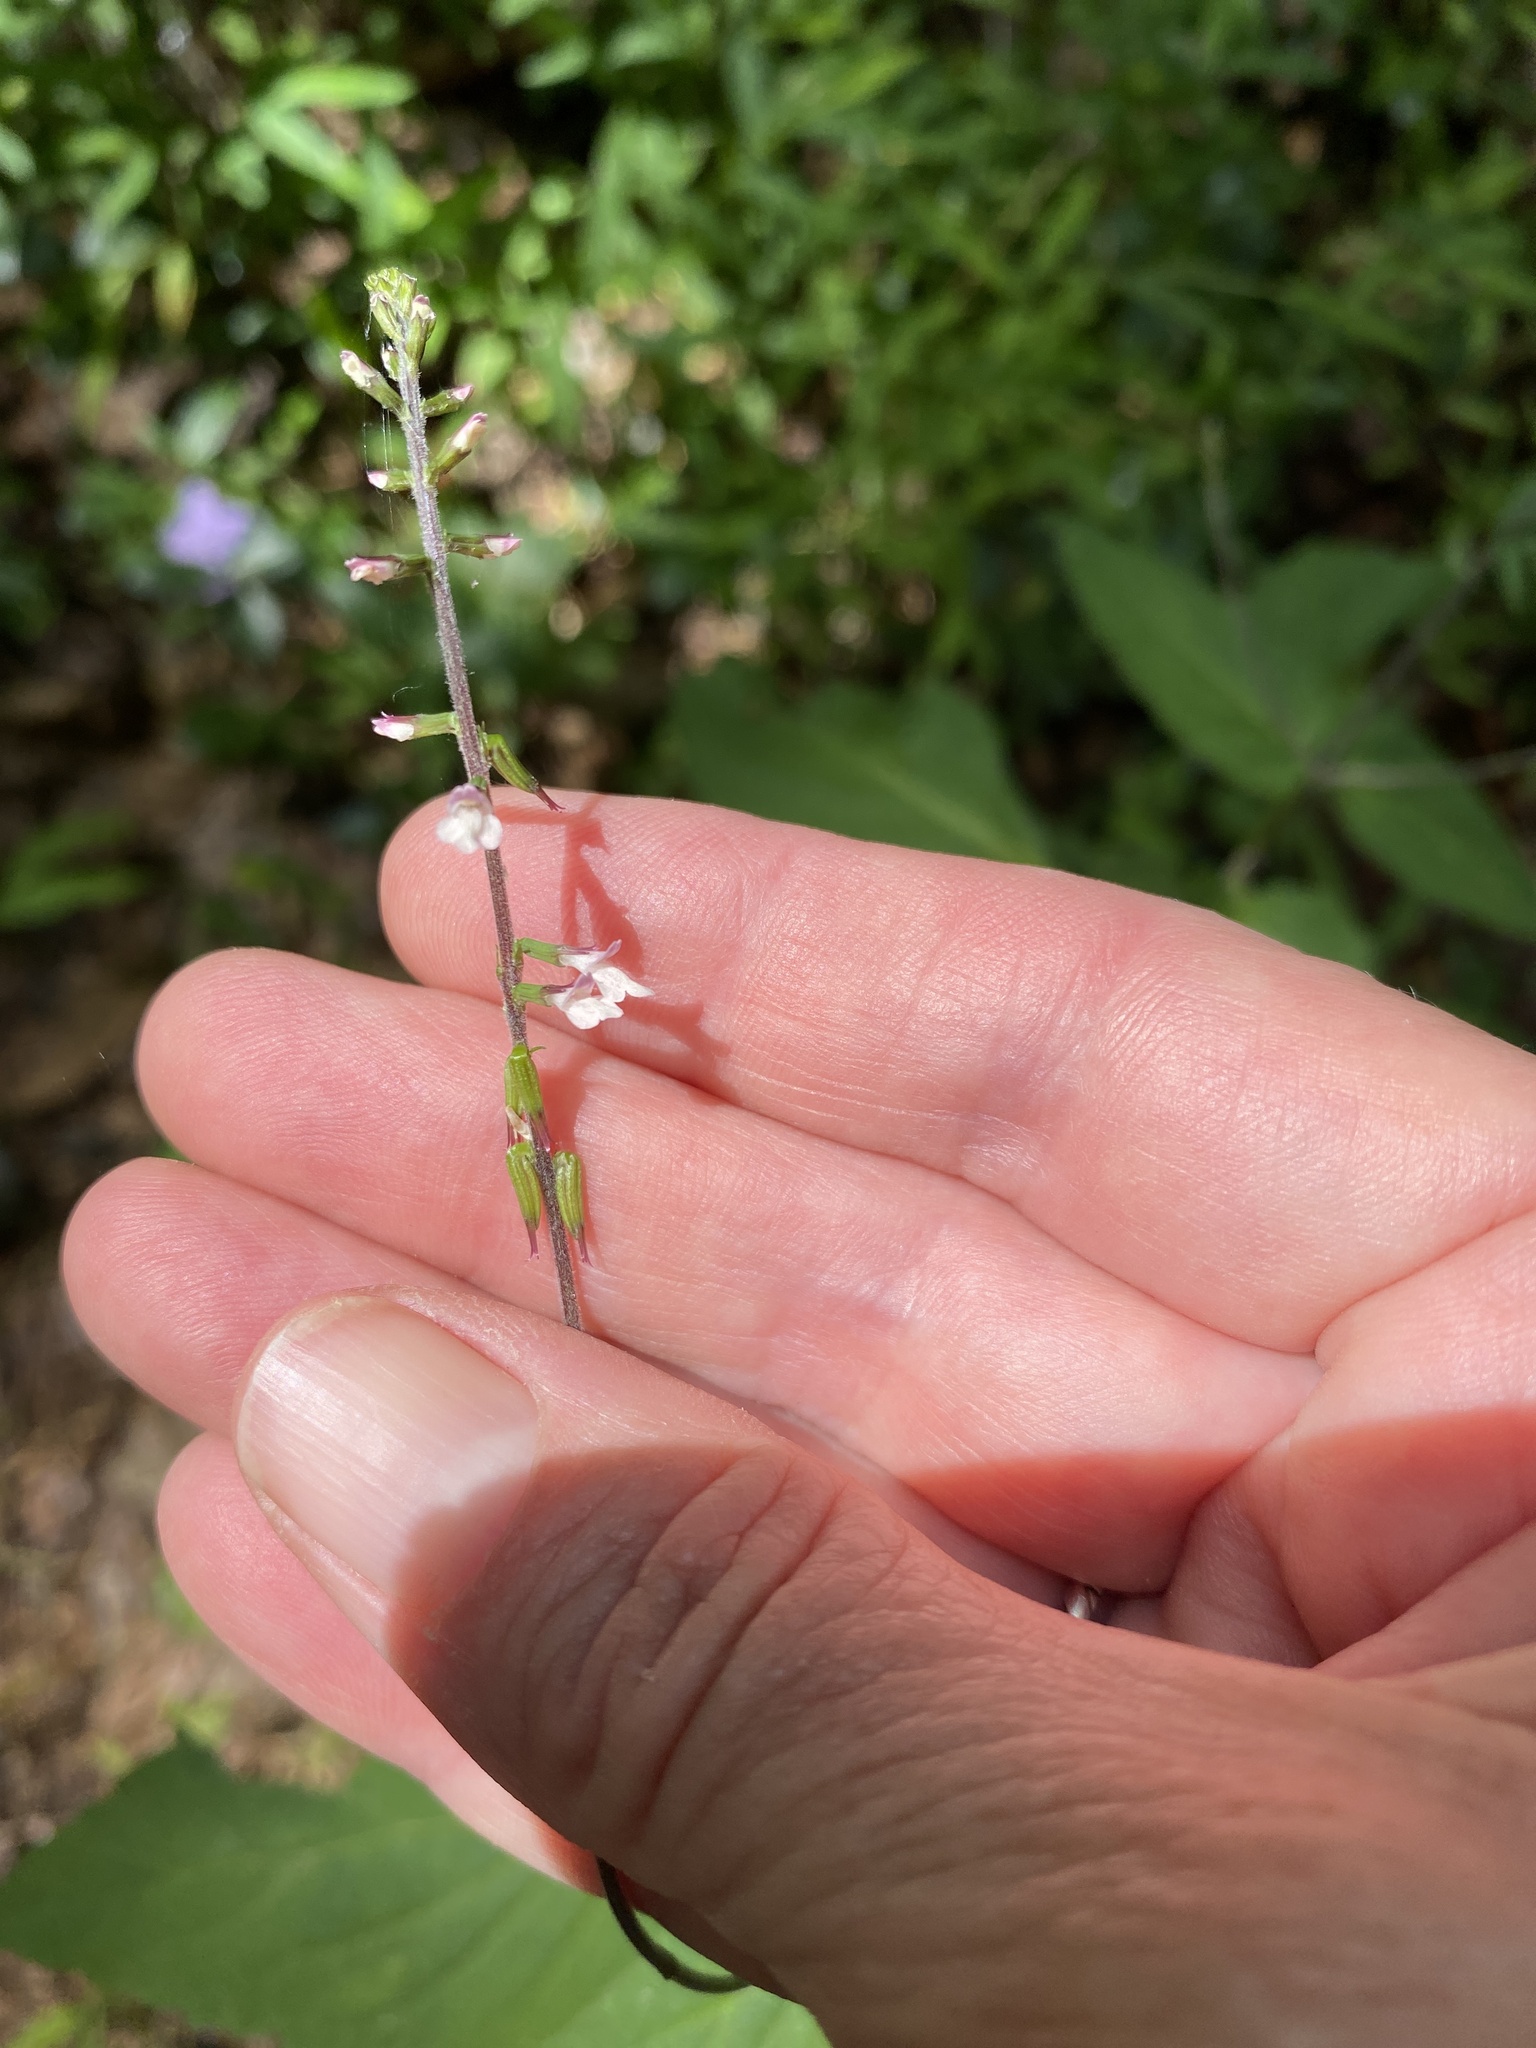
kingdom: Plantae
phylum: Tracheophyta
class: Magnoliopsida
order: Lamiales
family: Phrymaceae
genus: Phryma
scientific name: Phryma leptostachya
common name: American lopseed
